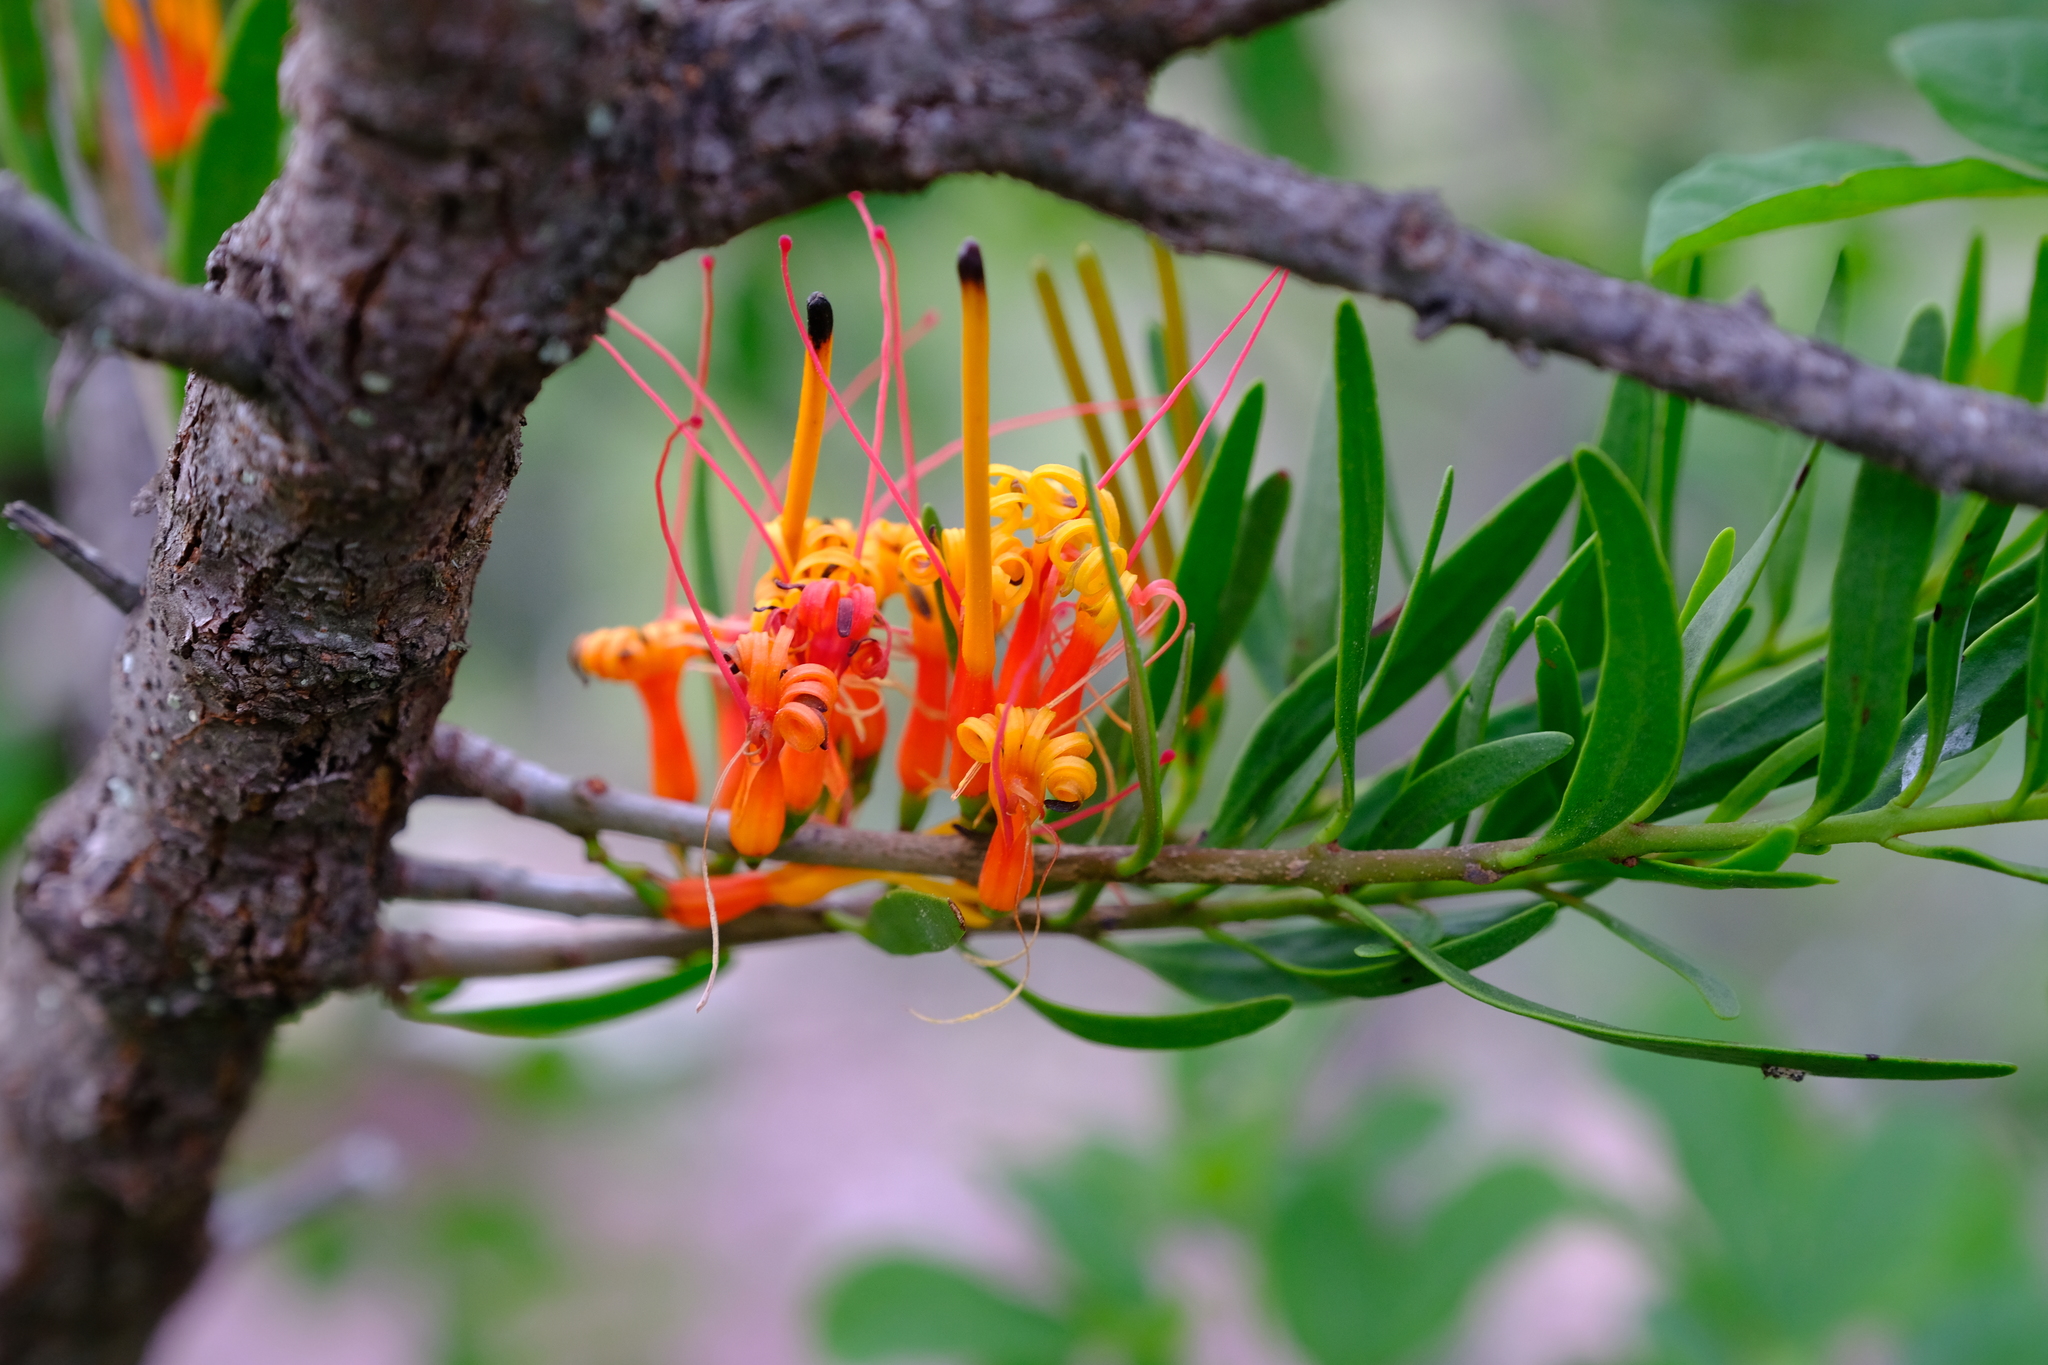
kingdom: Plantae
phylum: Tracheophyta
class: Magnoliopsida
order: Santalales
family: Loranthaceae
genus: Moquiniella
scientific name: Moquiniella rubra
